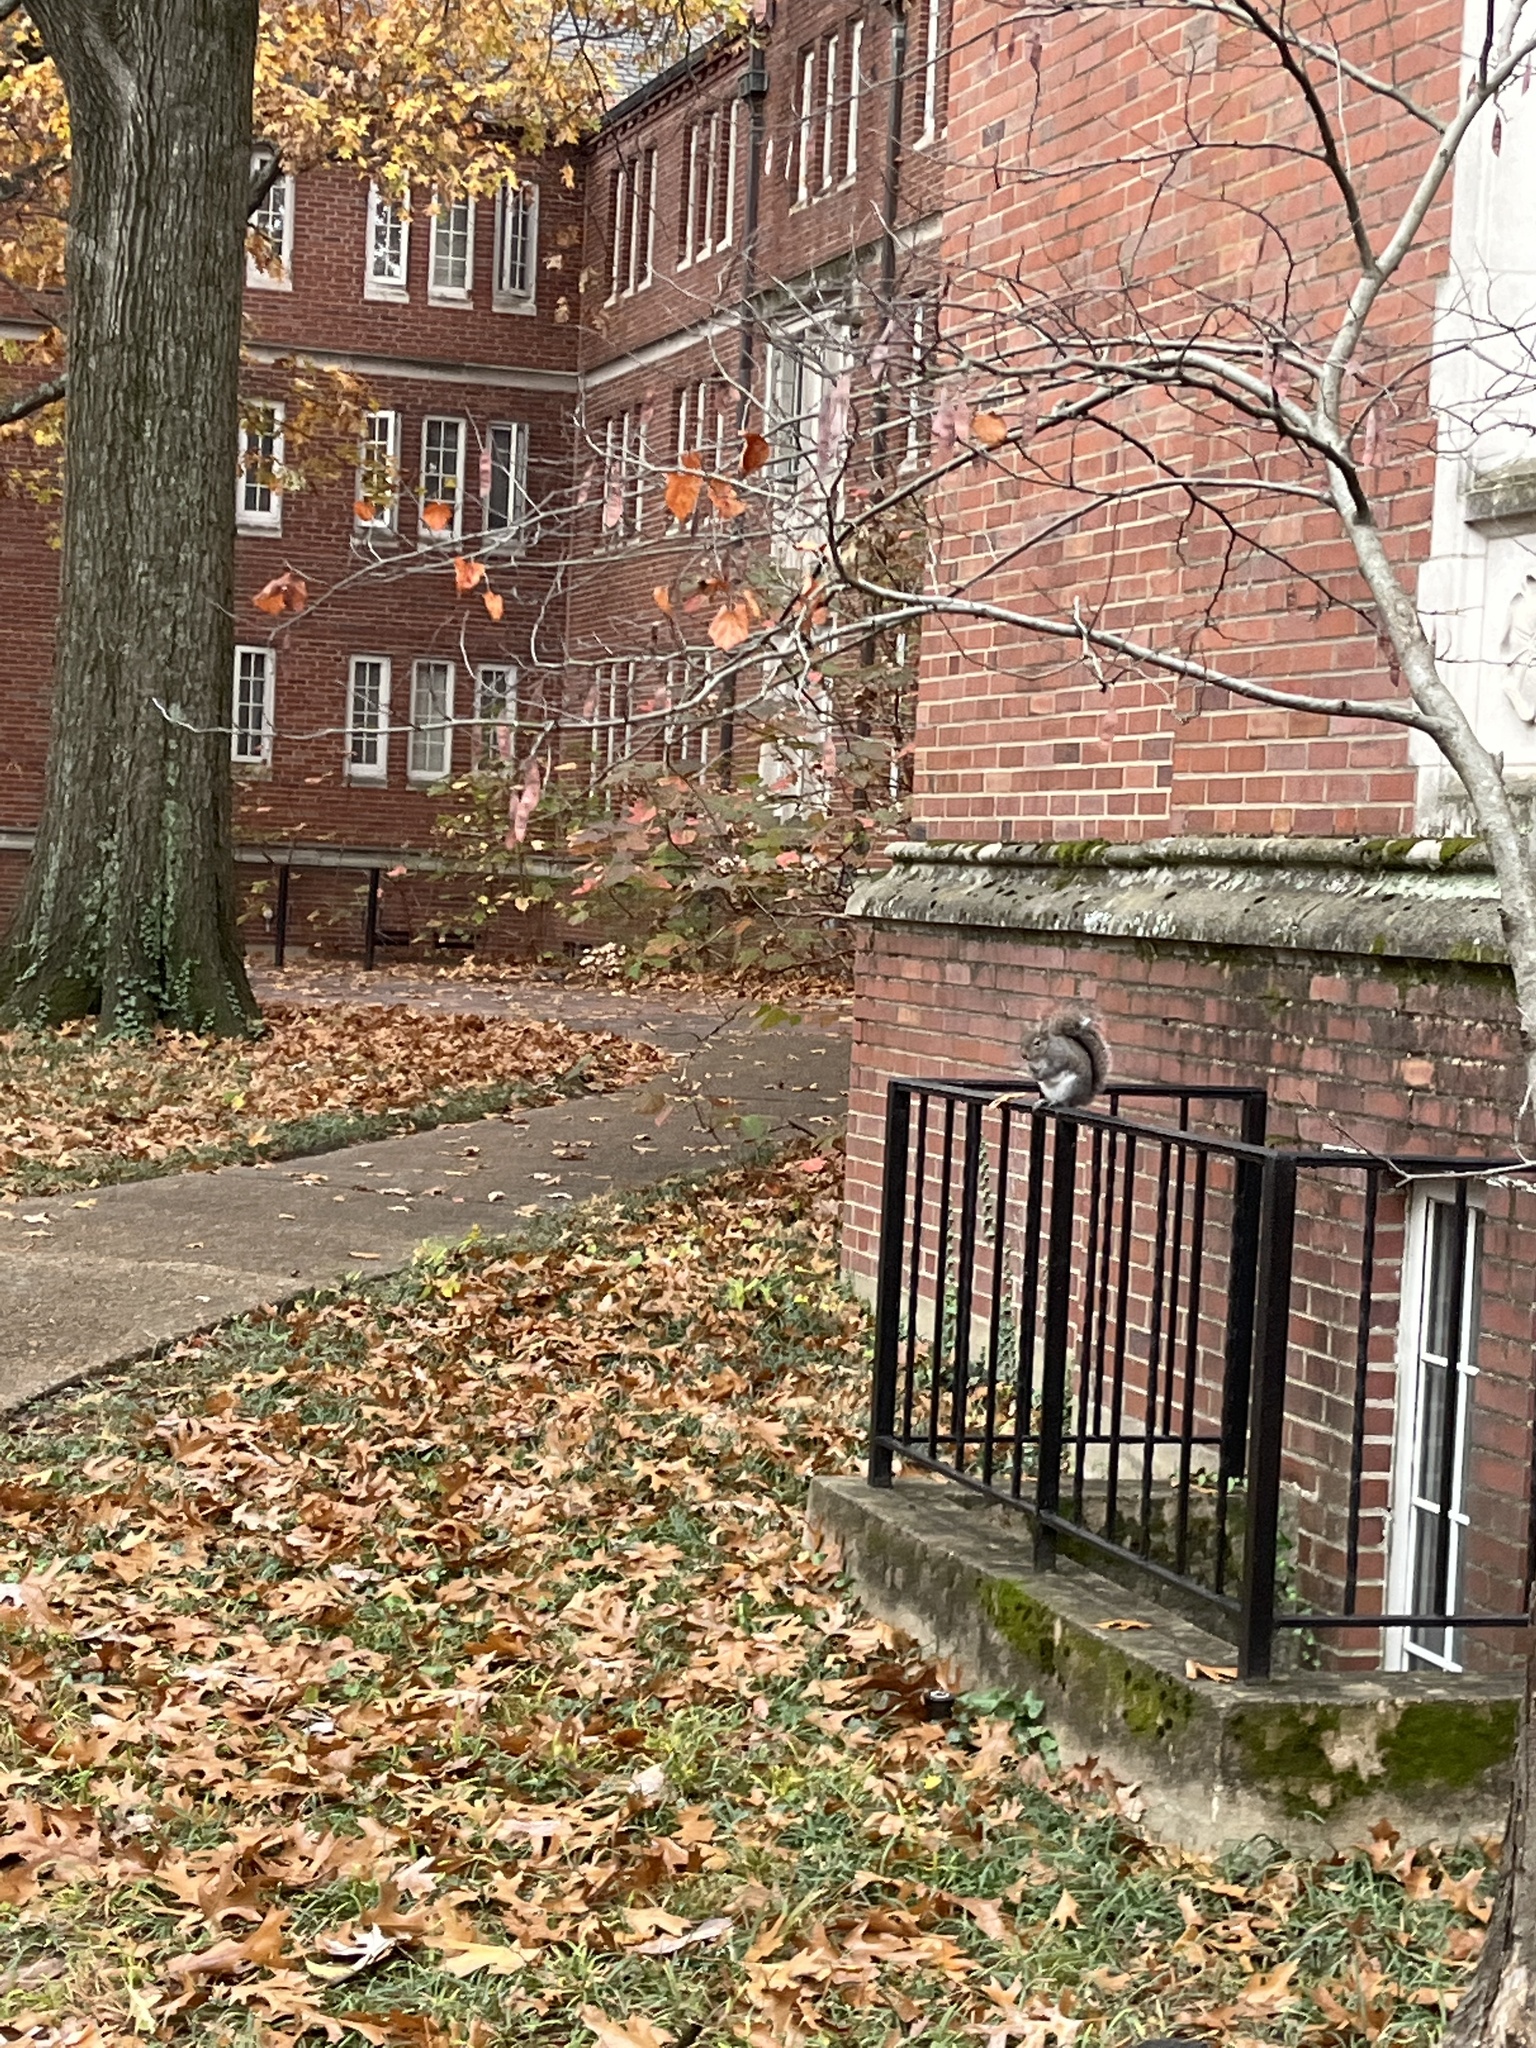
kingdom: Animalia
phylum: Chordata
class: Mammalia
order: Rodentia
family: Sciuridae
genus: Sciurus
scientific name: Sciurus carolinensis
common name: Eastern gray squirrel
